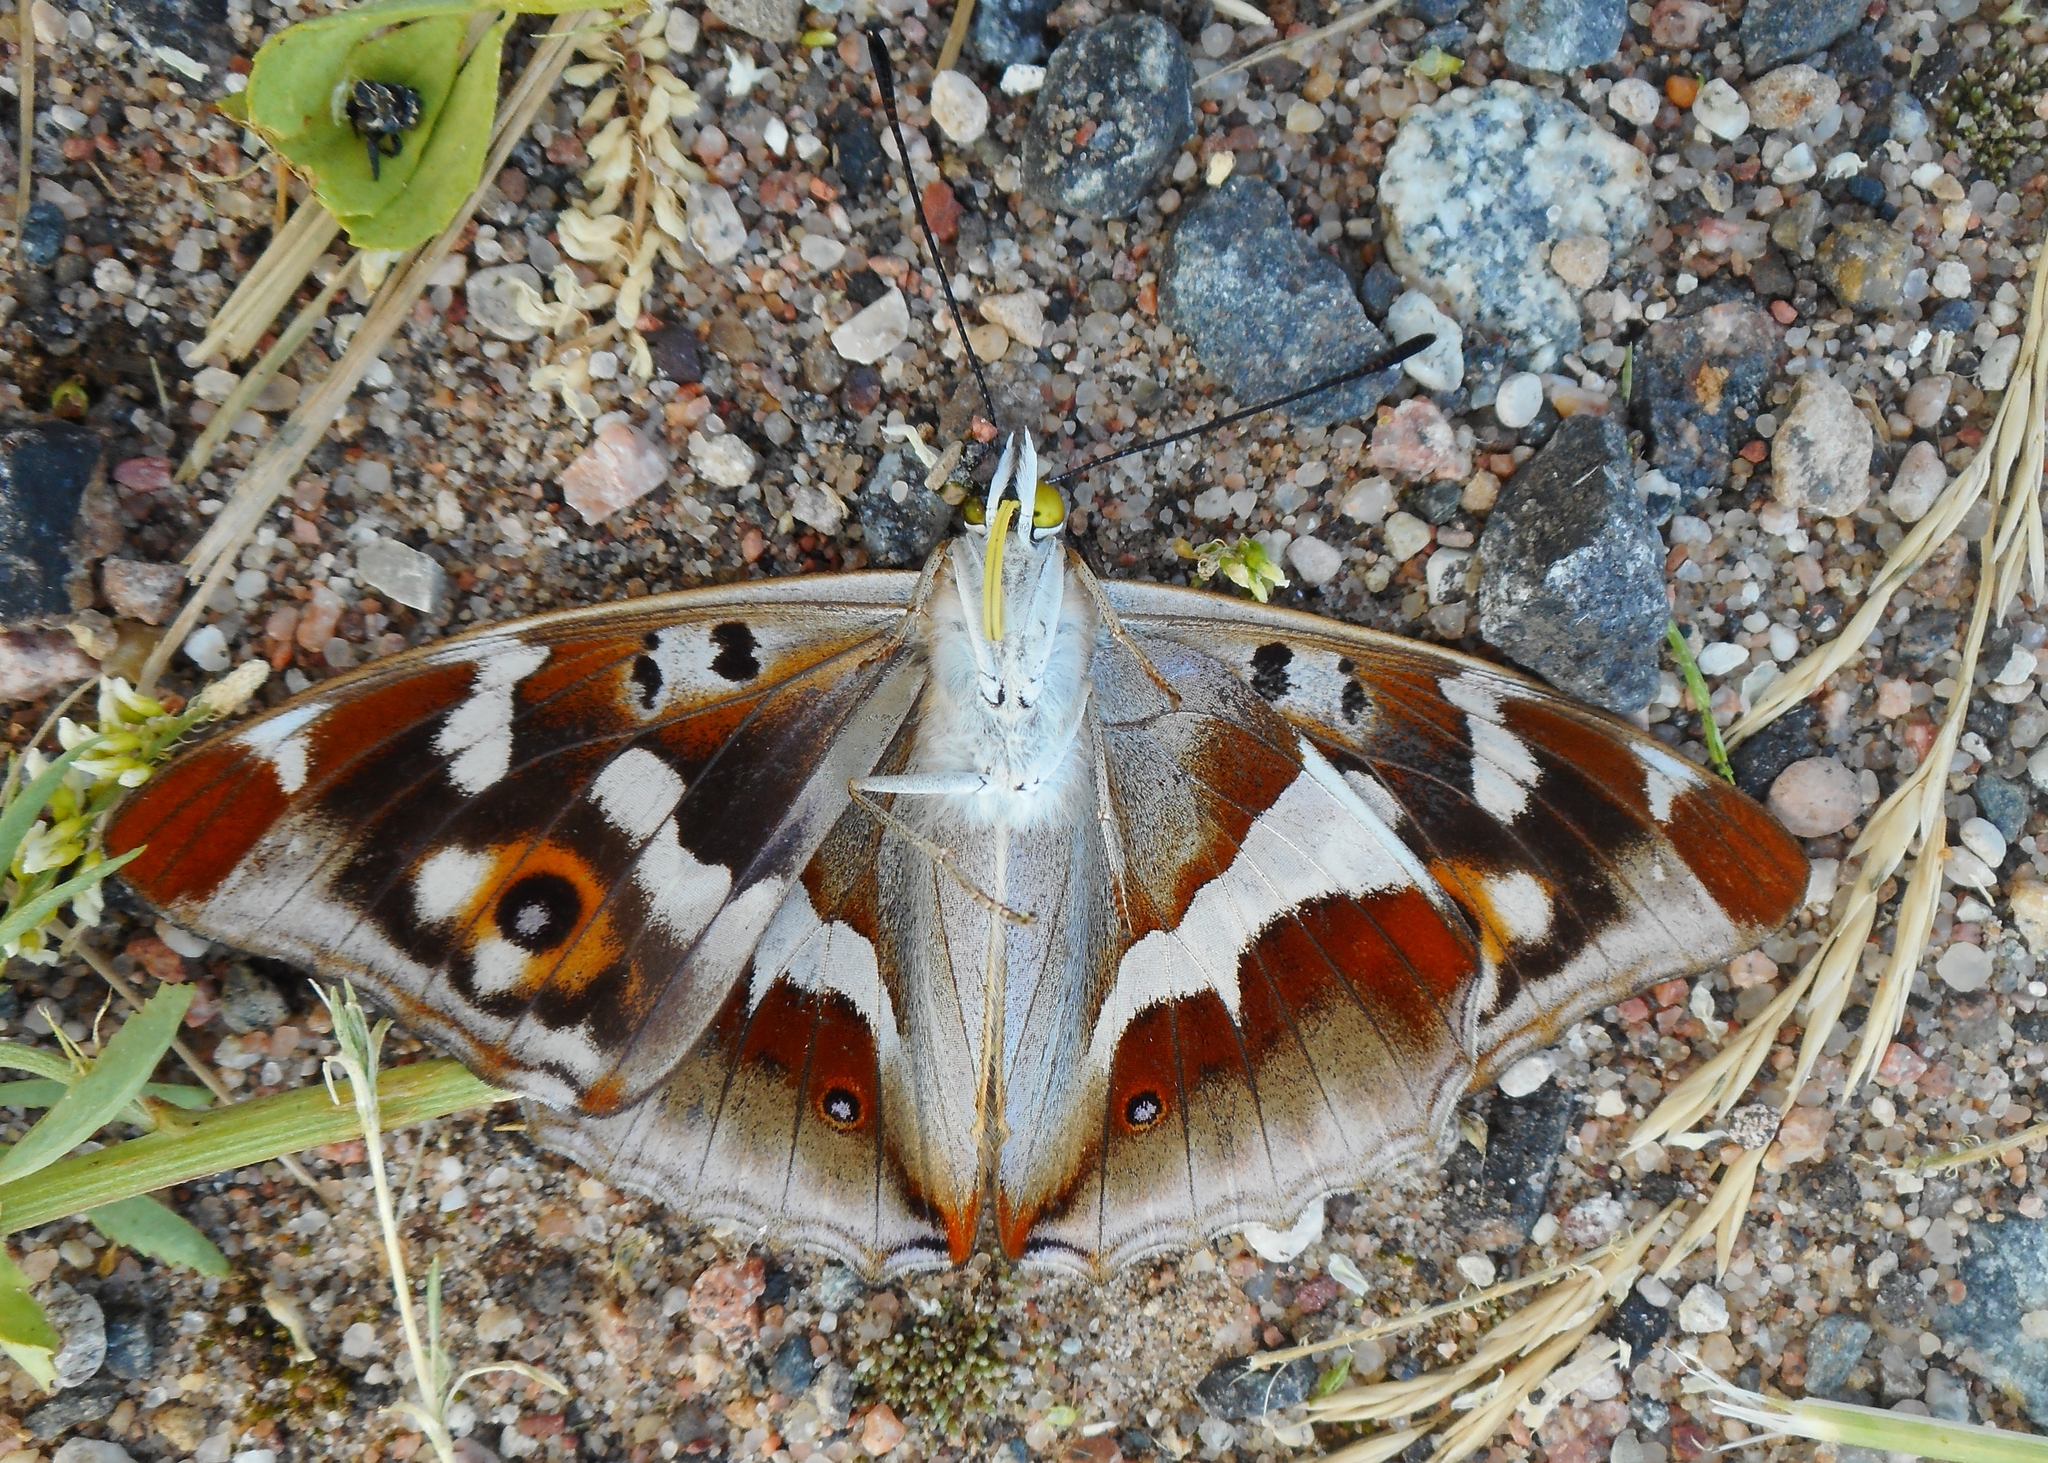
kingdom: Animalia
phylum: Arthropoda
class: Insecta
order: Lepidoptera
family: Nymphalidae
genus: Apatura
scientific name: Apatura iris
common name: Purple emperor
